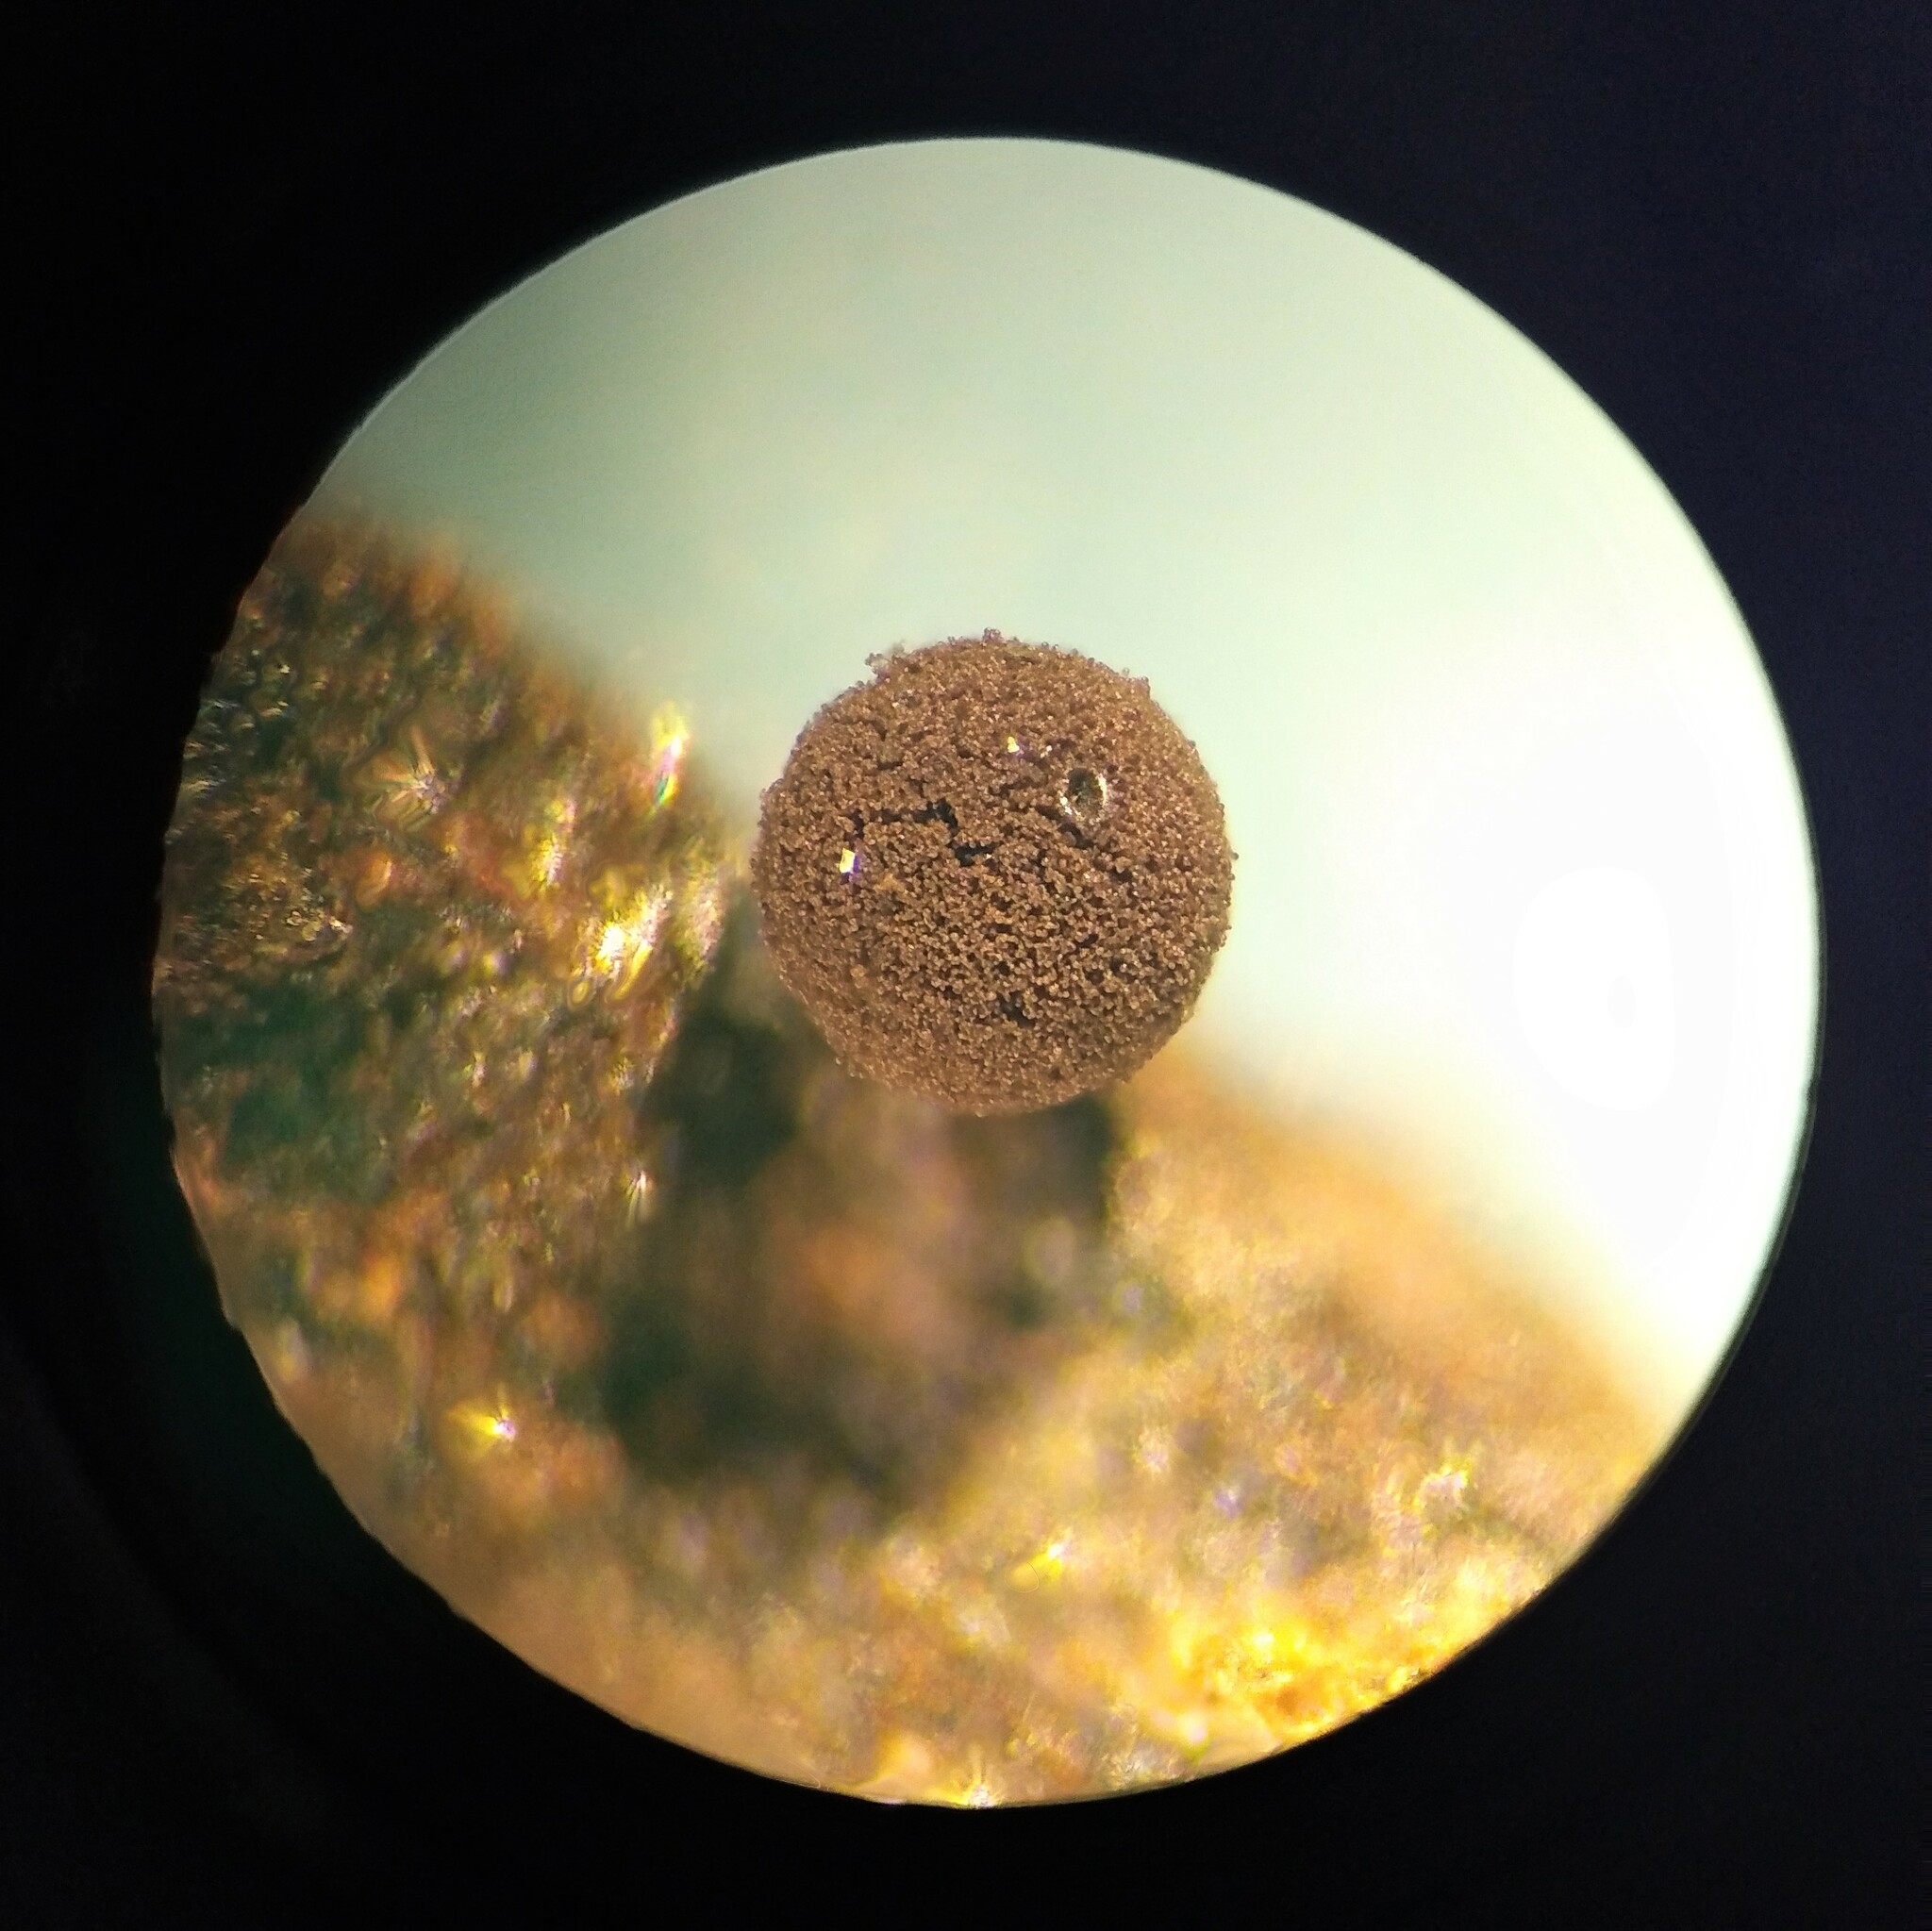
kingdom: Protozoa
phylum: Mycetozoa
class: Myxomycetes
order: Stemonitidales
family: Stemonitidaceae
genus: Enerthenema
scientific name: Enerthenema papillatum
